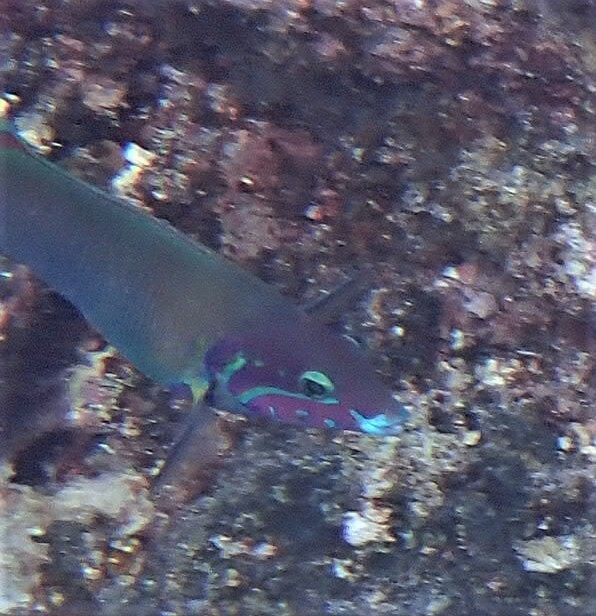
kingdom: Animalia
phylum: Chordata
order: Perciformes
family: Labridae
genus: Thalassoma
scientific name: Thalassoma genivittatum
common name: Red-cheek wrasse
